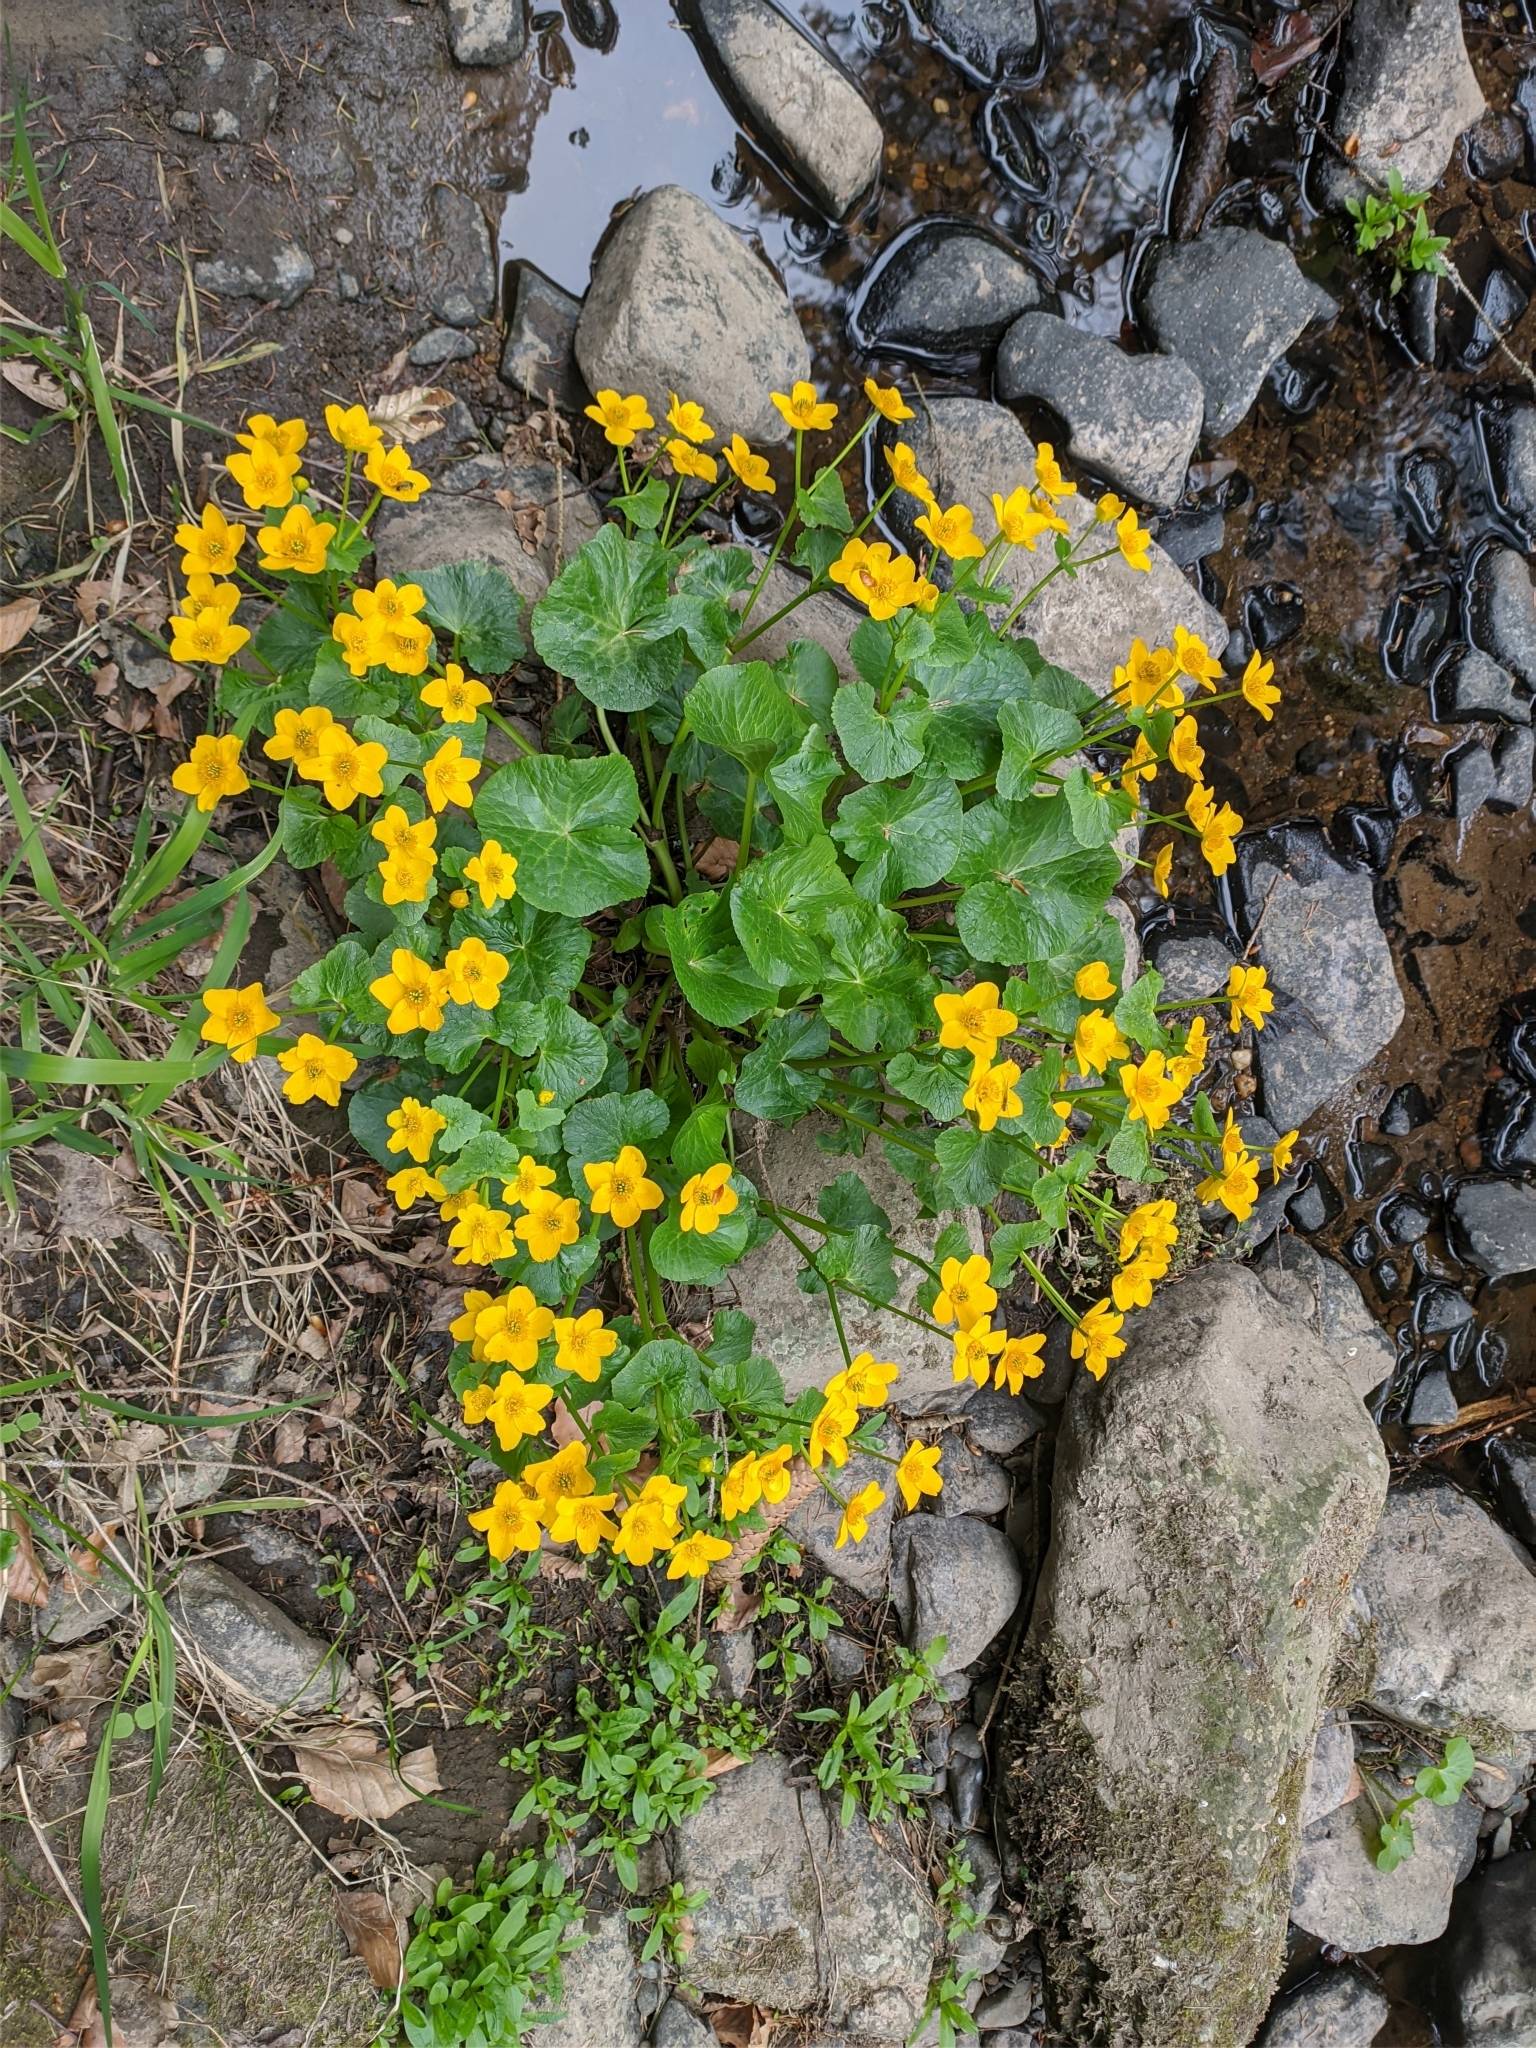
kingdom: Plantae
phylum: Tracheophyta
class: Magnoliopsida
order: Ranunculales
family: Ranunculaceae
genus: Caltha
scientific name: Caltha palustris
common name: Marsh marigold
